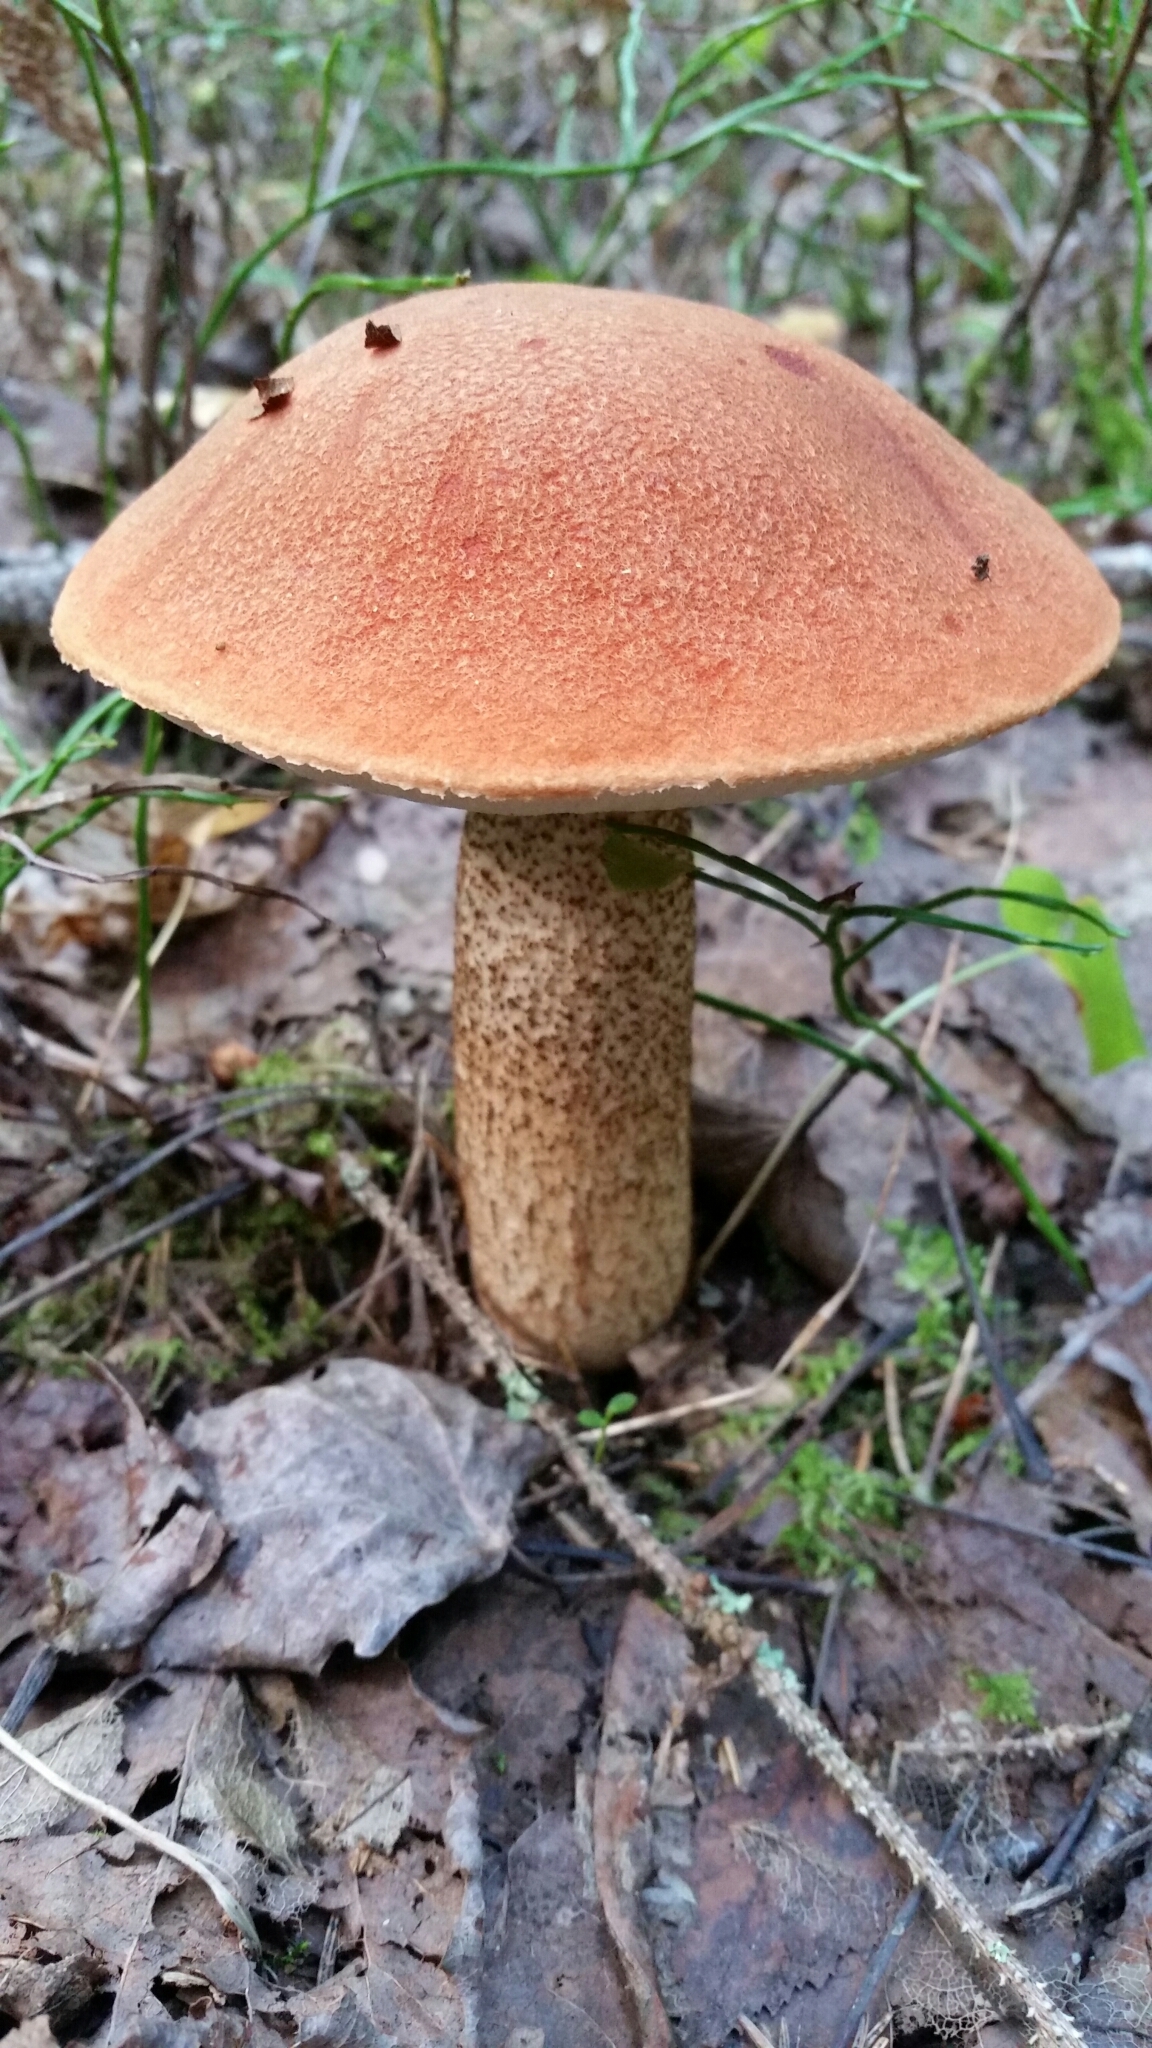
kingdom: Fungi
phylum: Basidiomycota
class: Agaricomycetes
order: Boletales
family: Boletaceae
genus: Leccinum
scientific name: Leccinum aurantiacum
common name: Orange bolete
